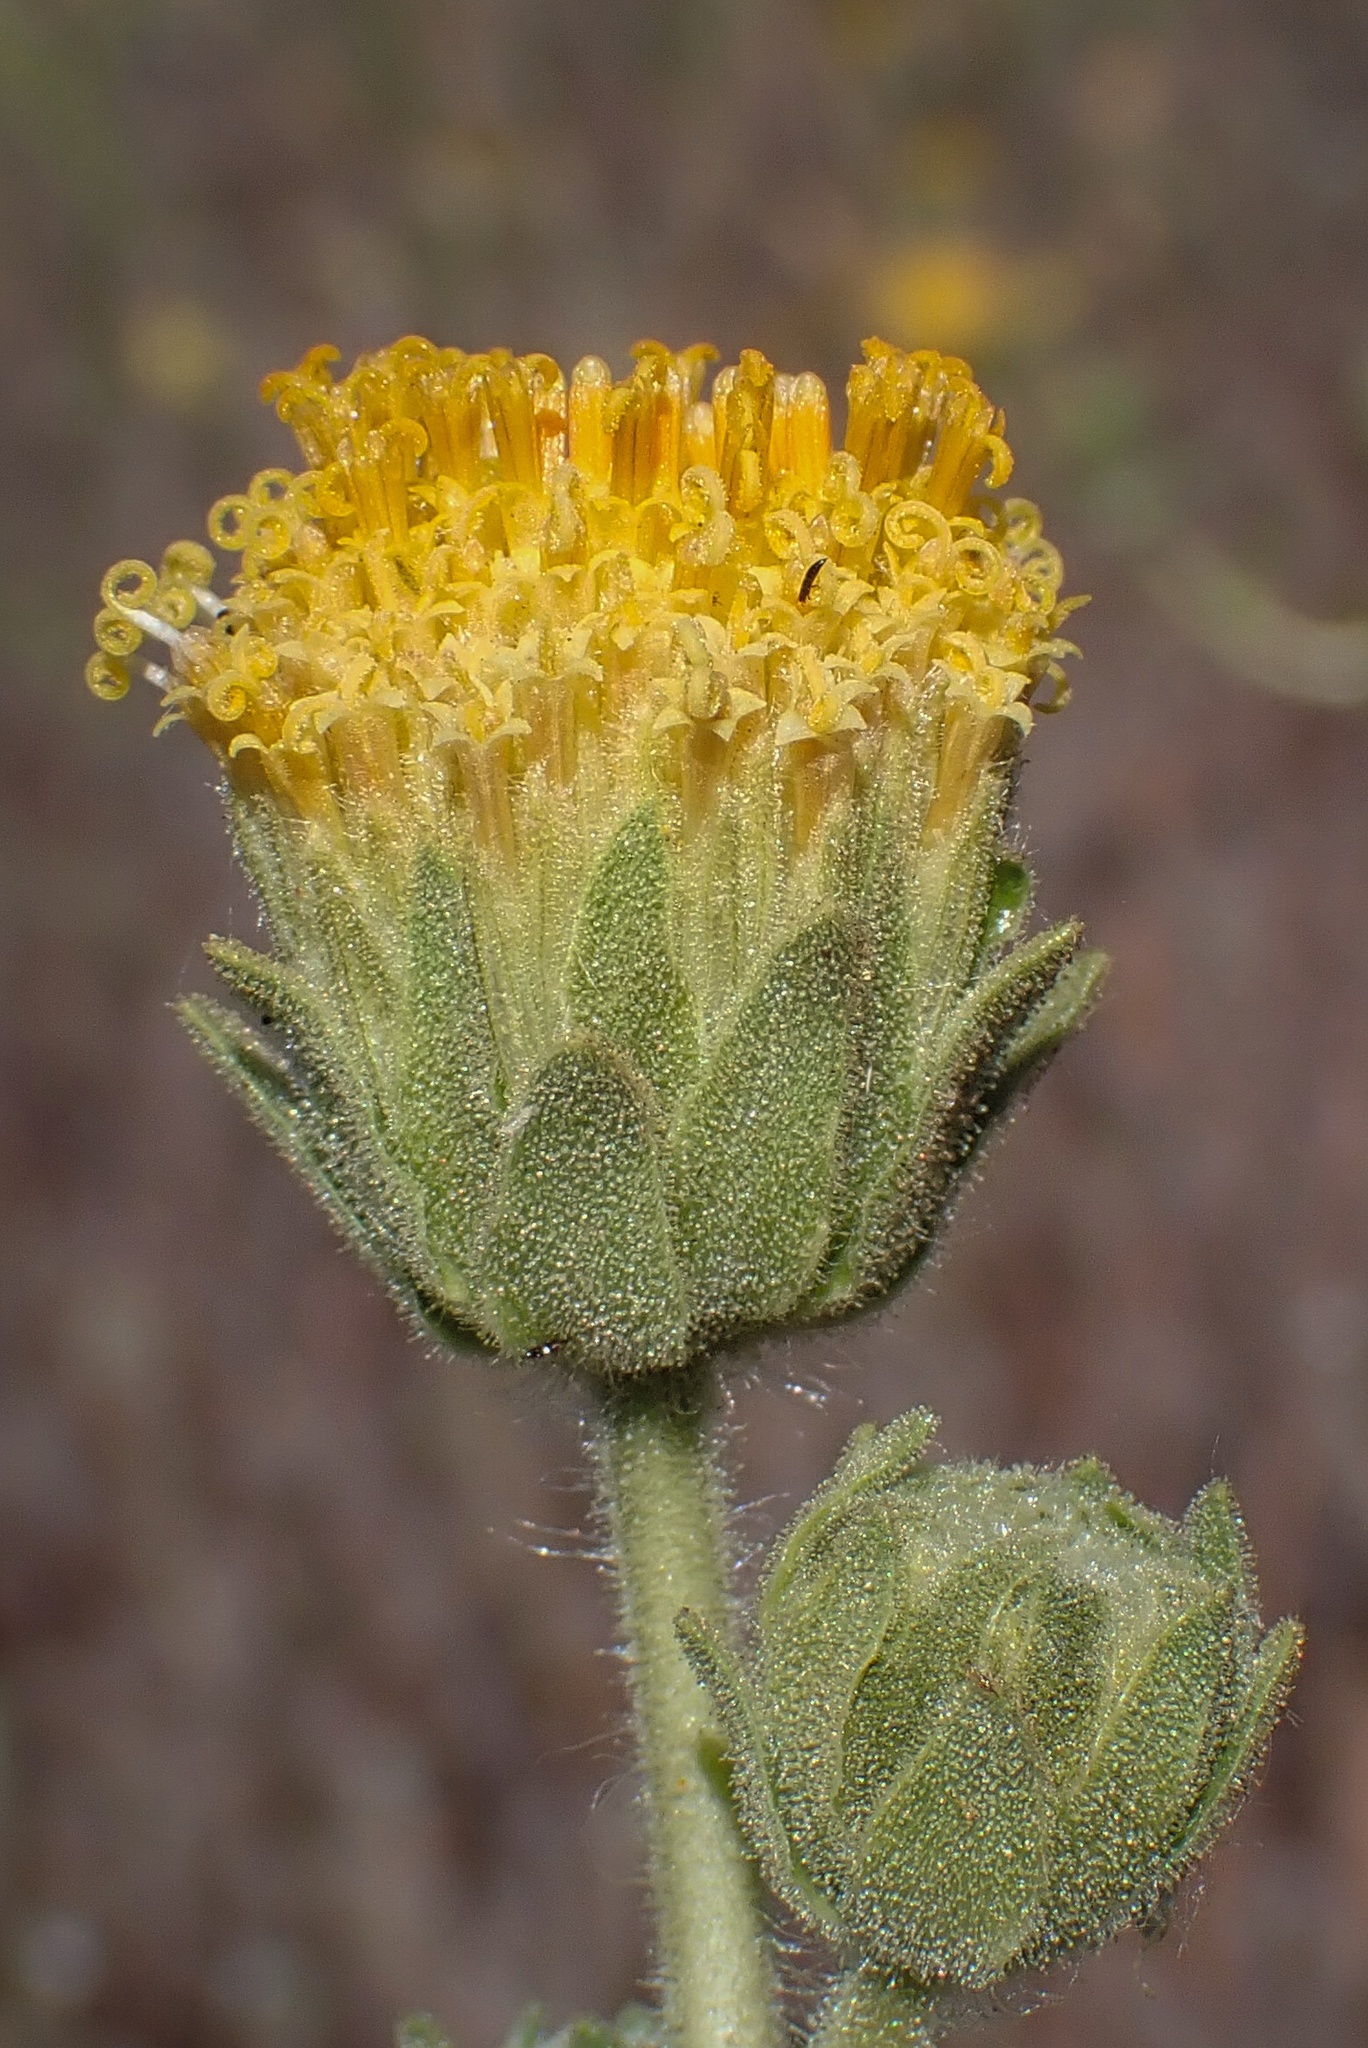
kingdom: Plantae
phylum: Tracheophyta
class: Magnoliopsida
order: Asterales
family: Asteraceae
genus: Geraea
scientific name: Geraea viscida
